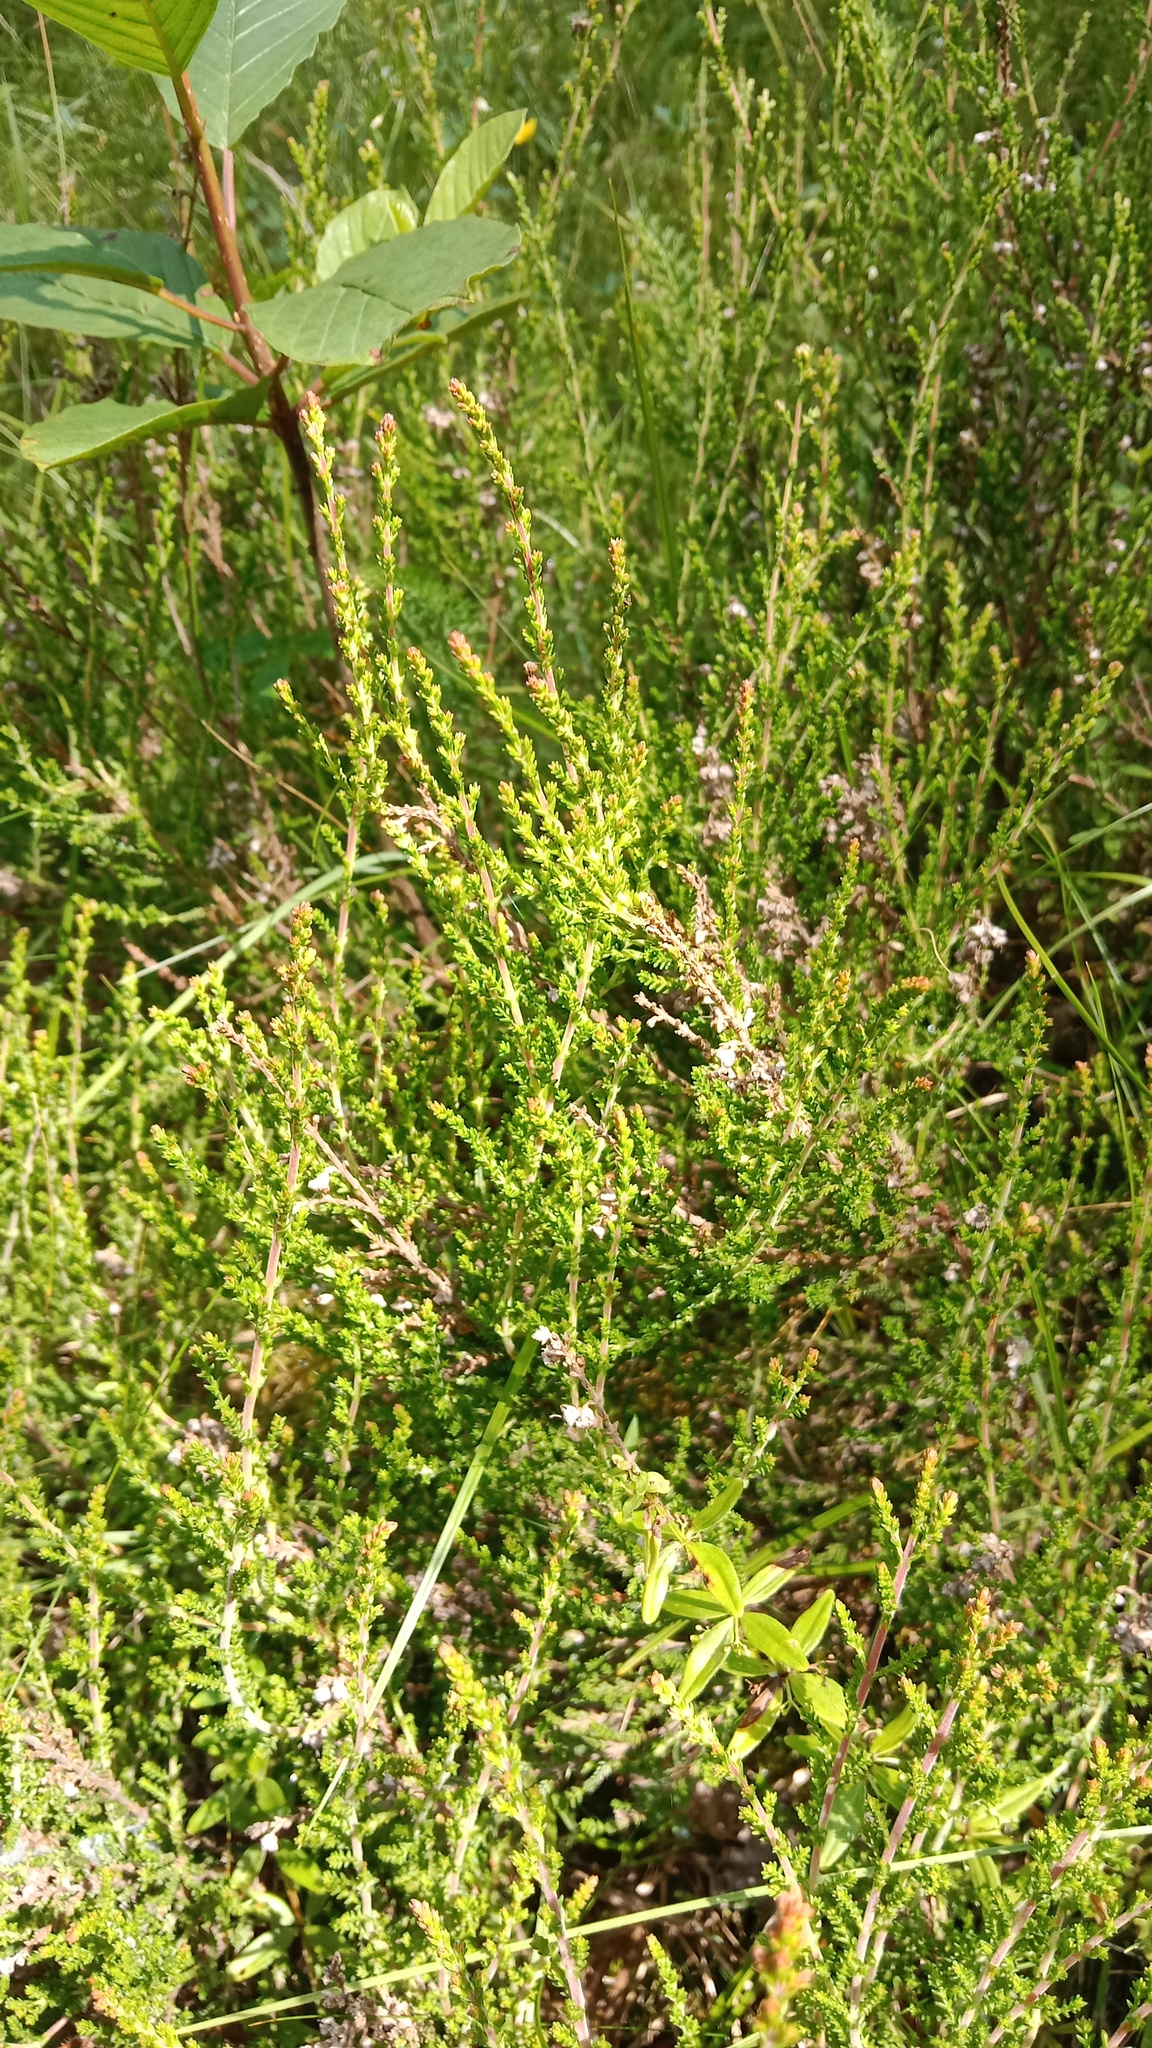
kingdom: Plantae
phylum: Tracheophyta
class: Magnoliopsida
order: Ericales
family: Ericaceae
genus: Calluna
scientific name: Calluna vulgaris
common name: Heather
